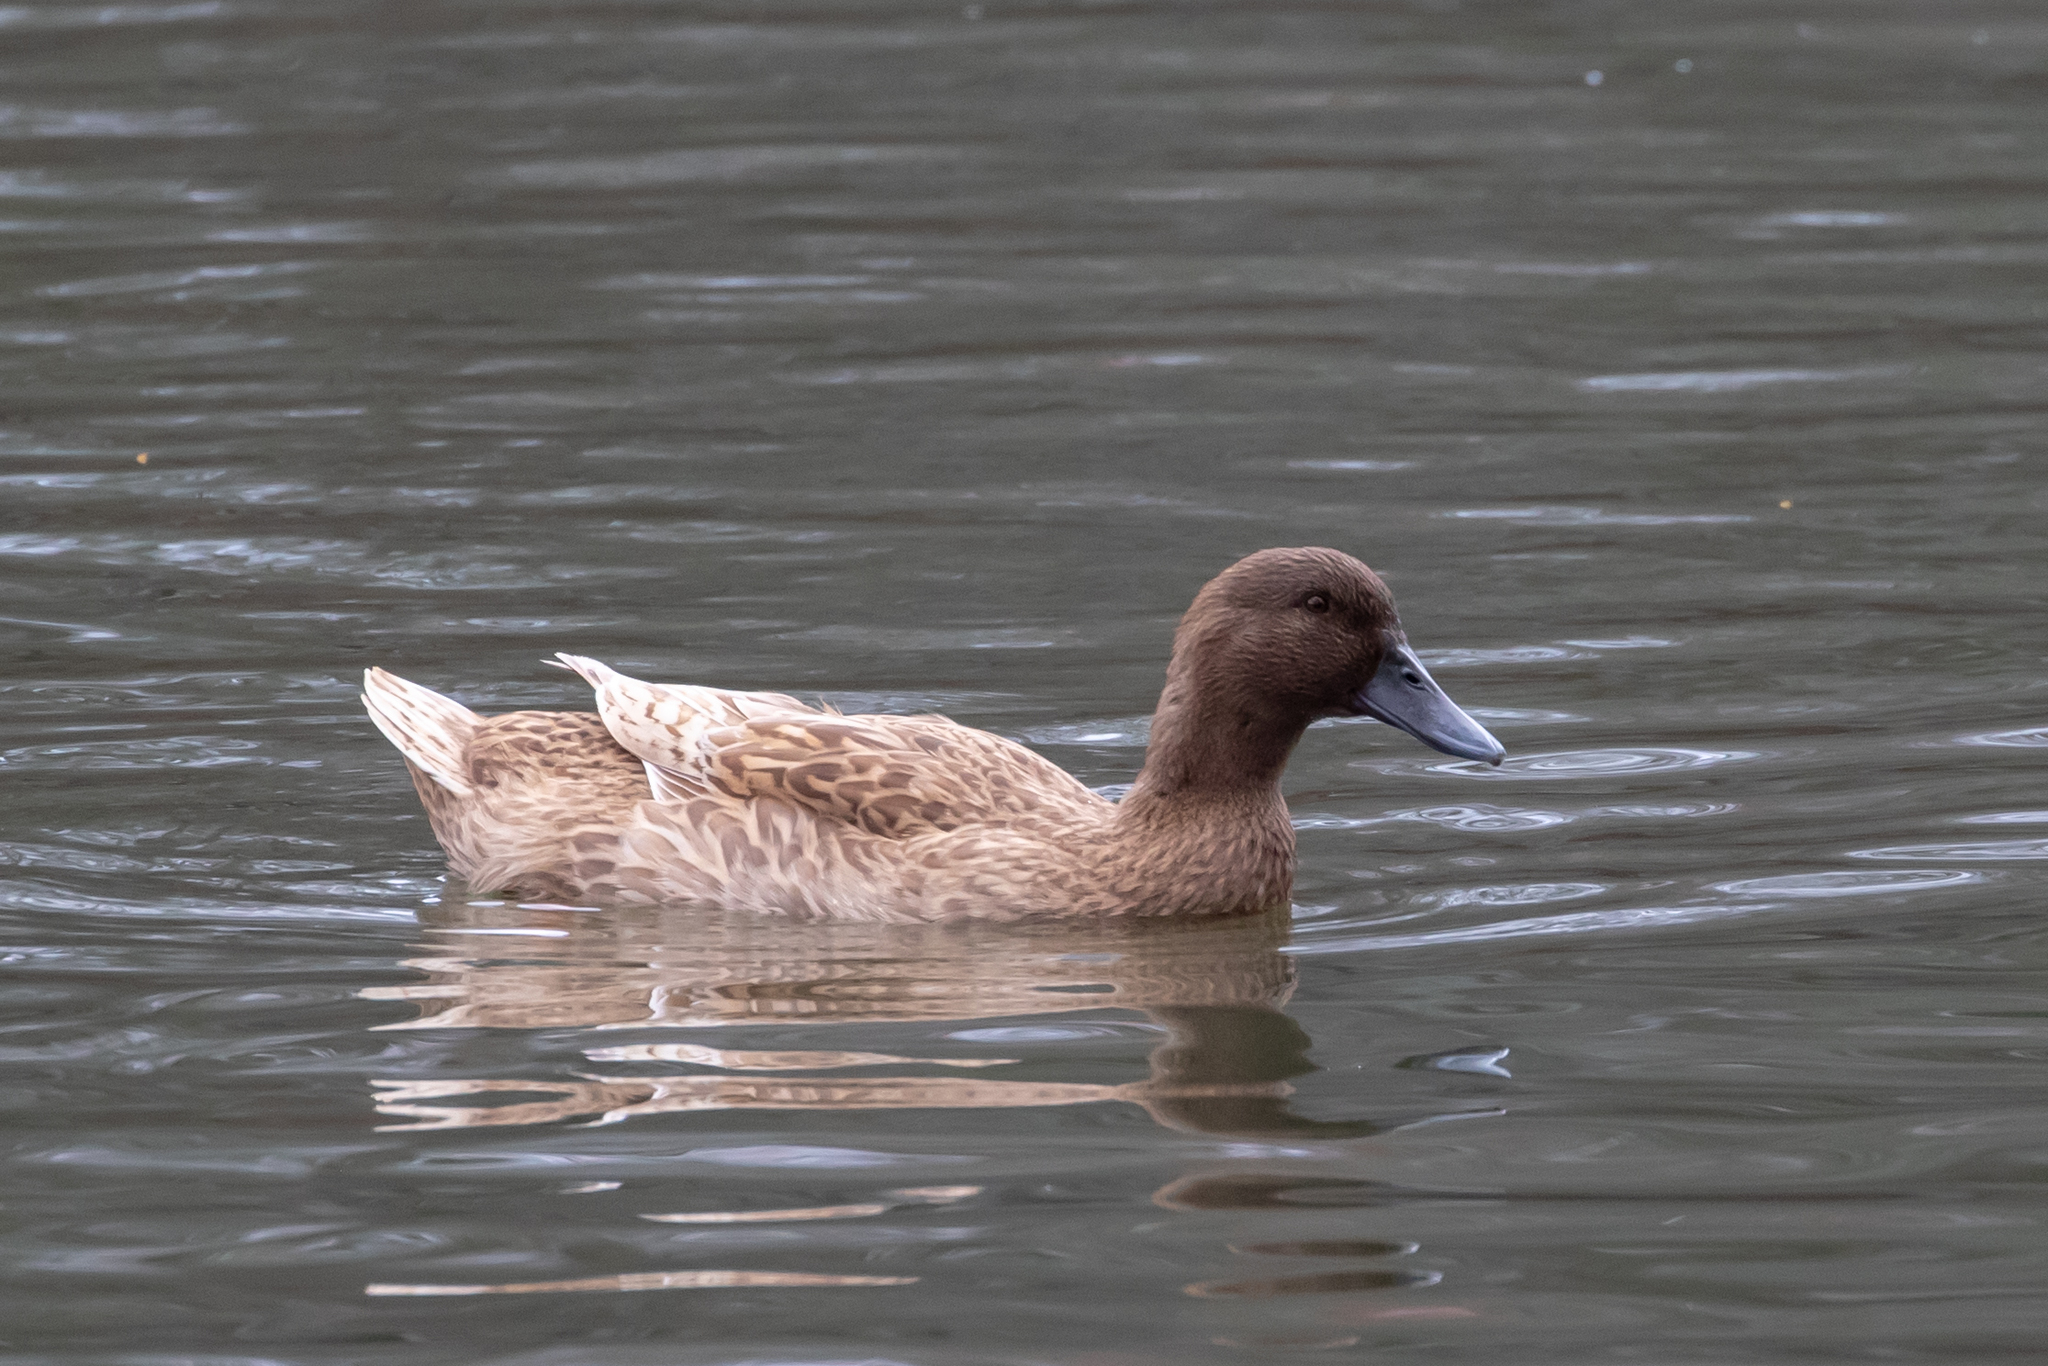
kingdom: Animalia
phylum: Chordata
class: Aves
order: Anseriformes
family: Anatidae
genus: Anas
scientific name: Anas platyrhynchos
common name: Mallard
